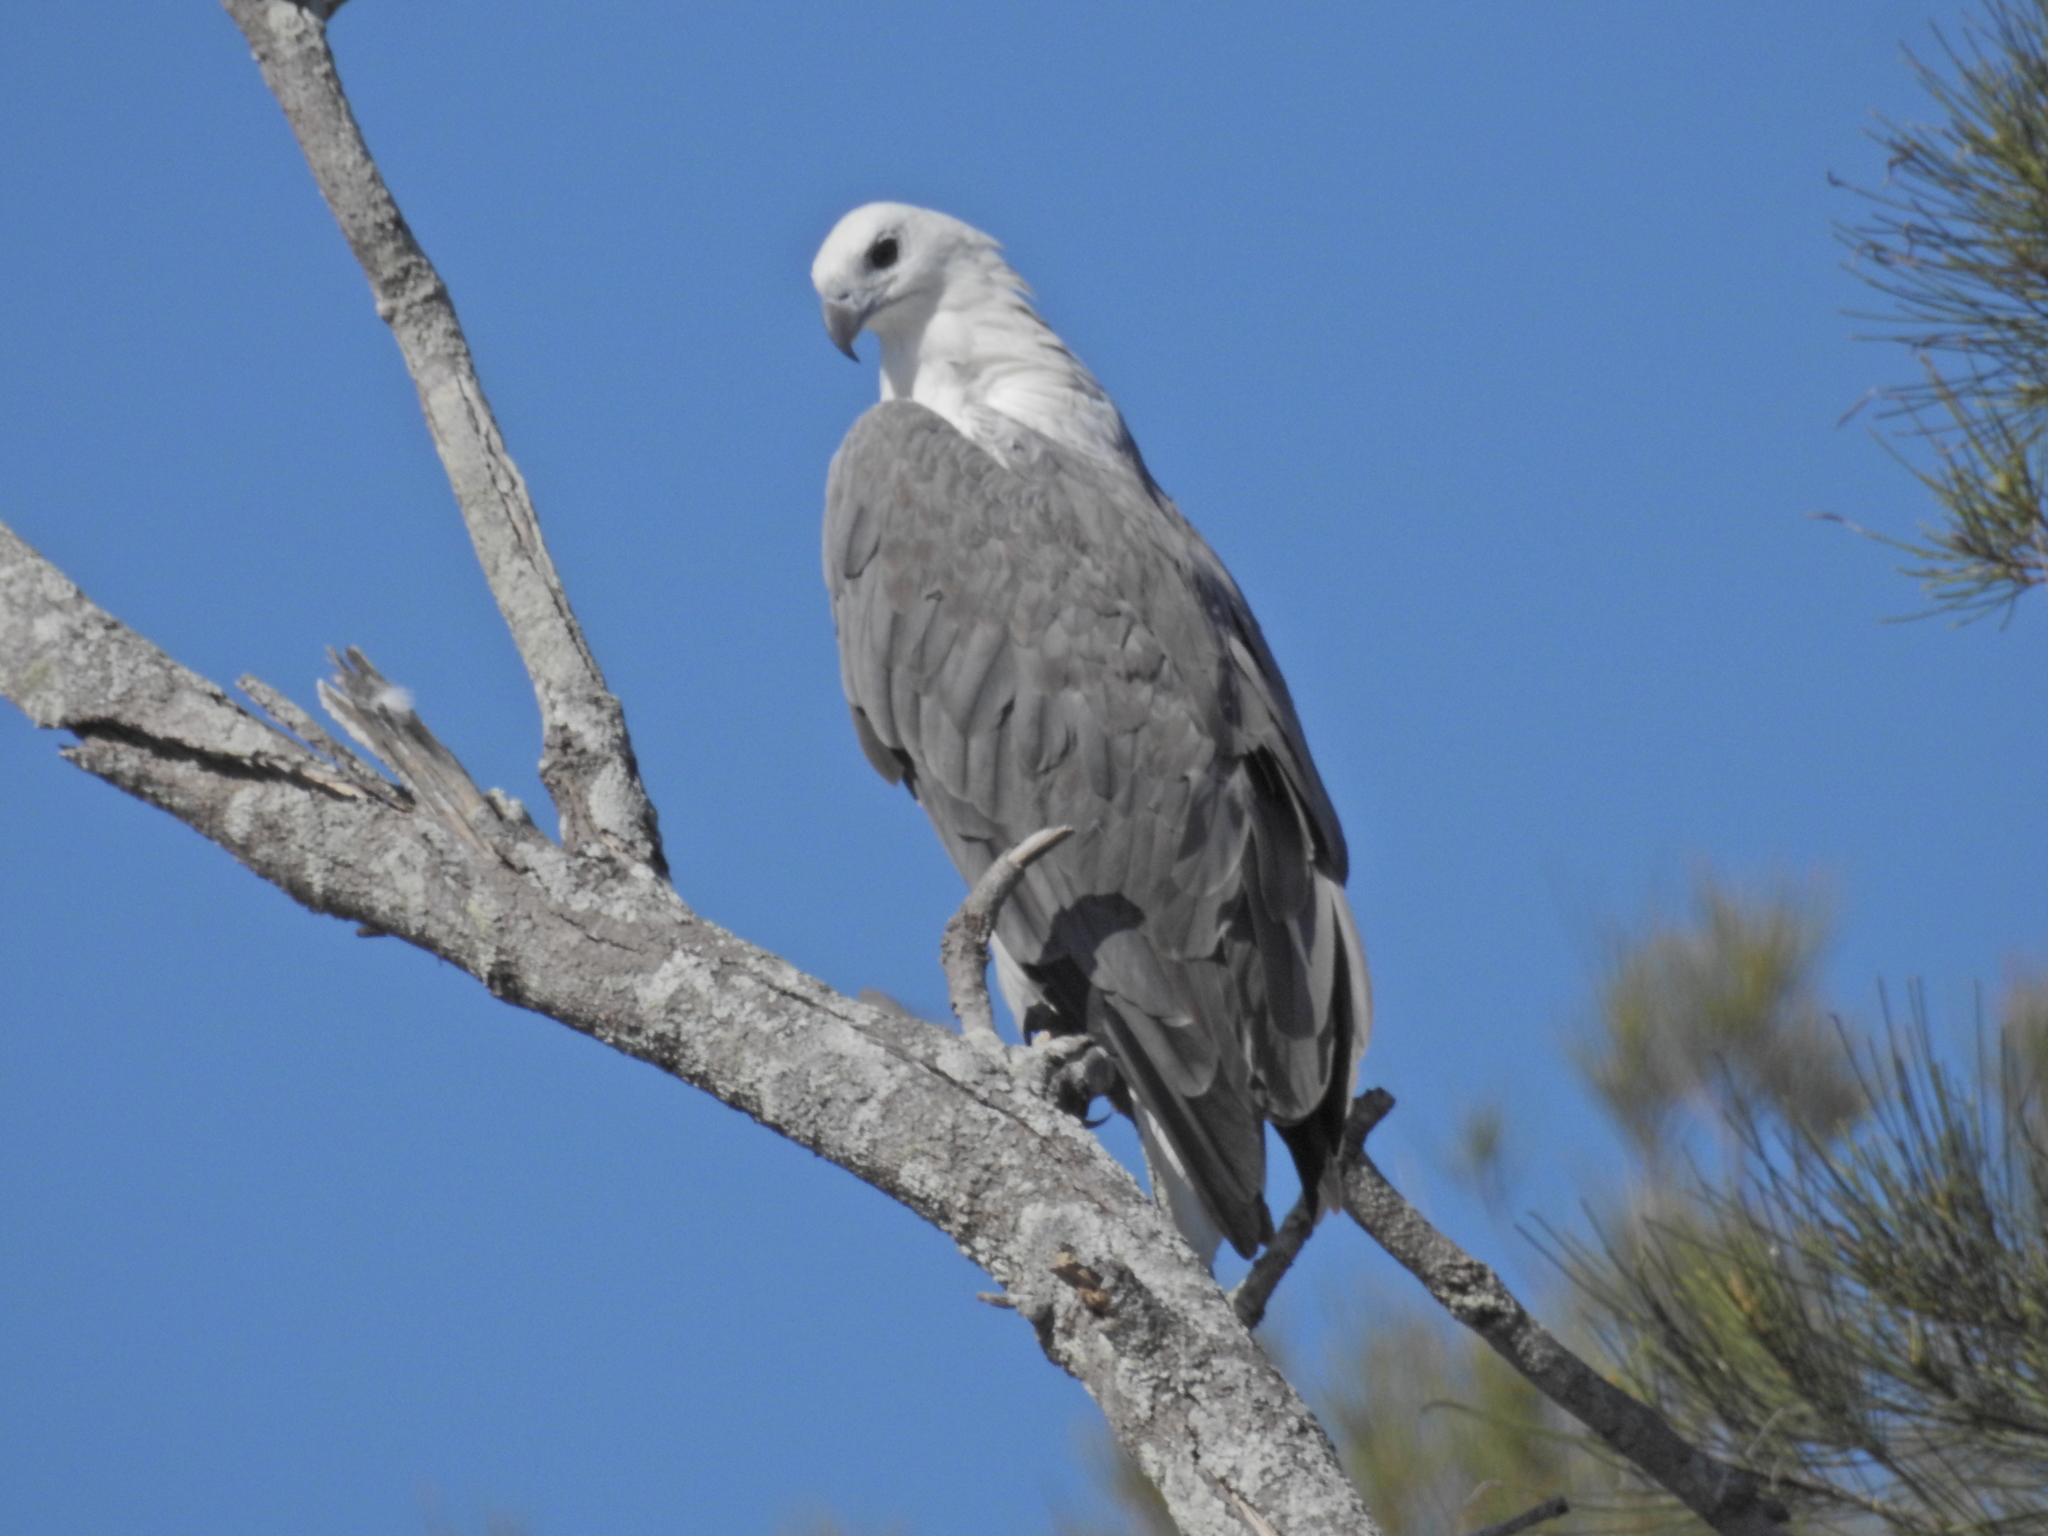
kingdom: Animalia
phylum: Chordata
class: Aves
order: Accipitriformes
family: Accipitridae
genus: Haliaeetus
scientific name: Haliaeetus leucogaster
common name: White-bellied sea eagle
